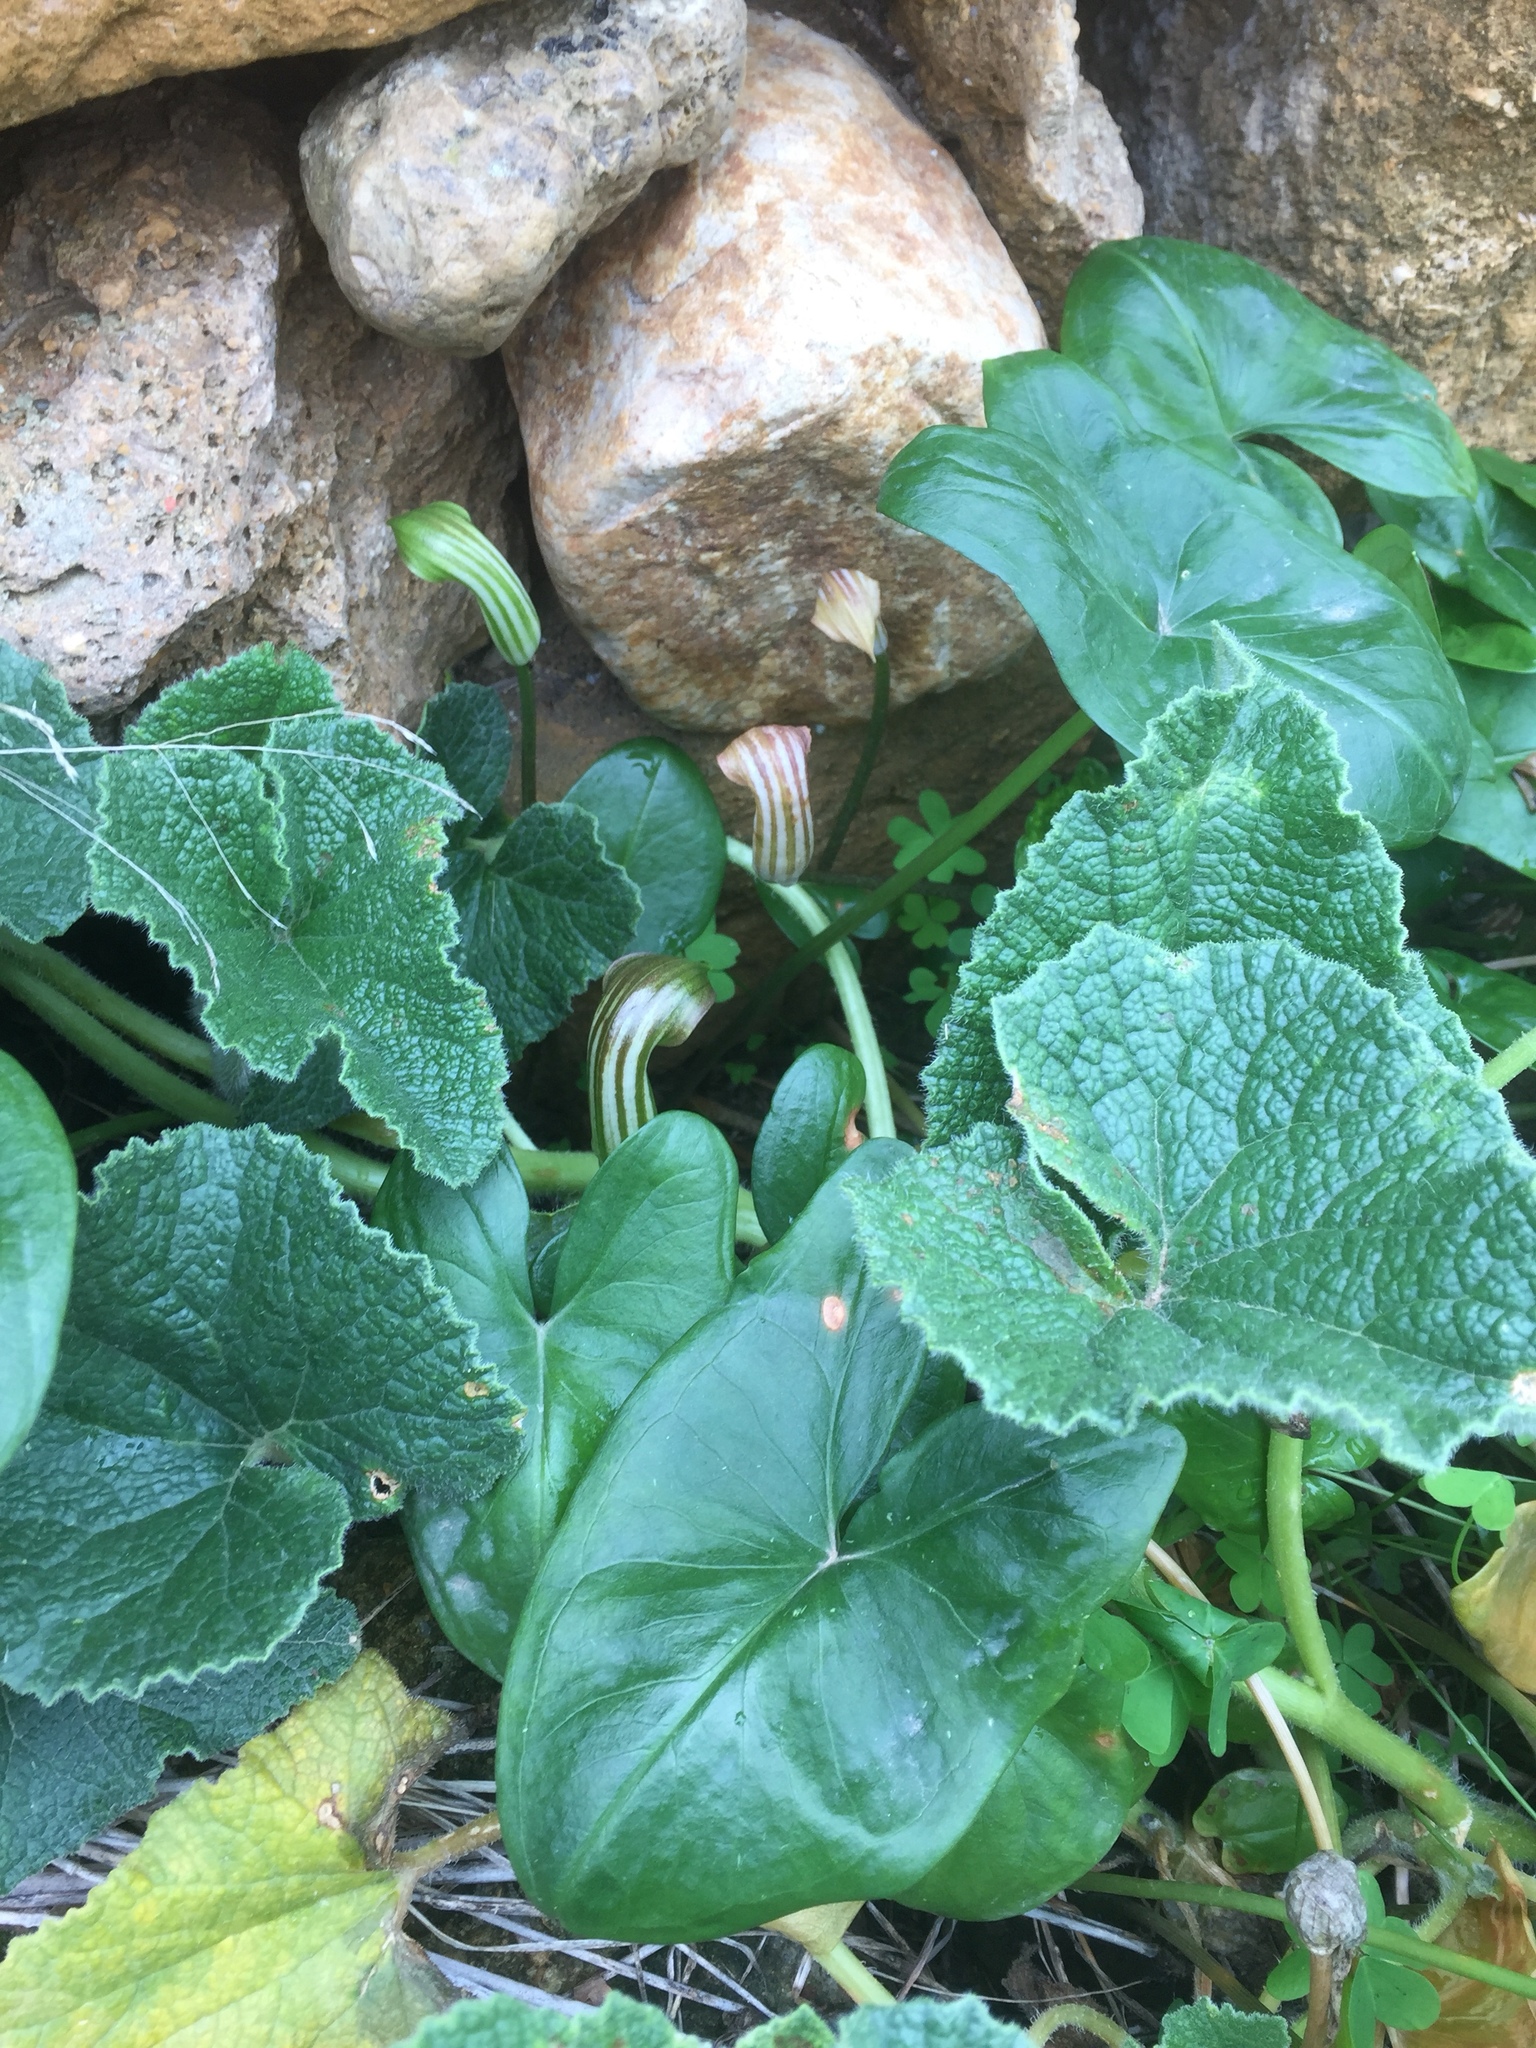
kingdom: Plantae
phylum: Tracheophyta
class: Liliopsida
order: Alismatales
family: Araceae
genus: Arisarum
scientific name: Arisarum vulgare
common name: Common arisarum
